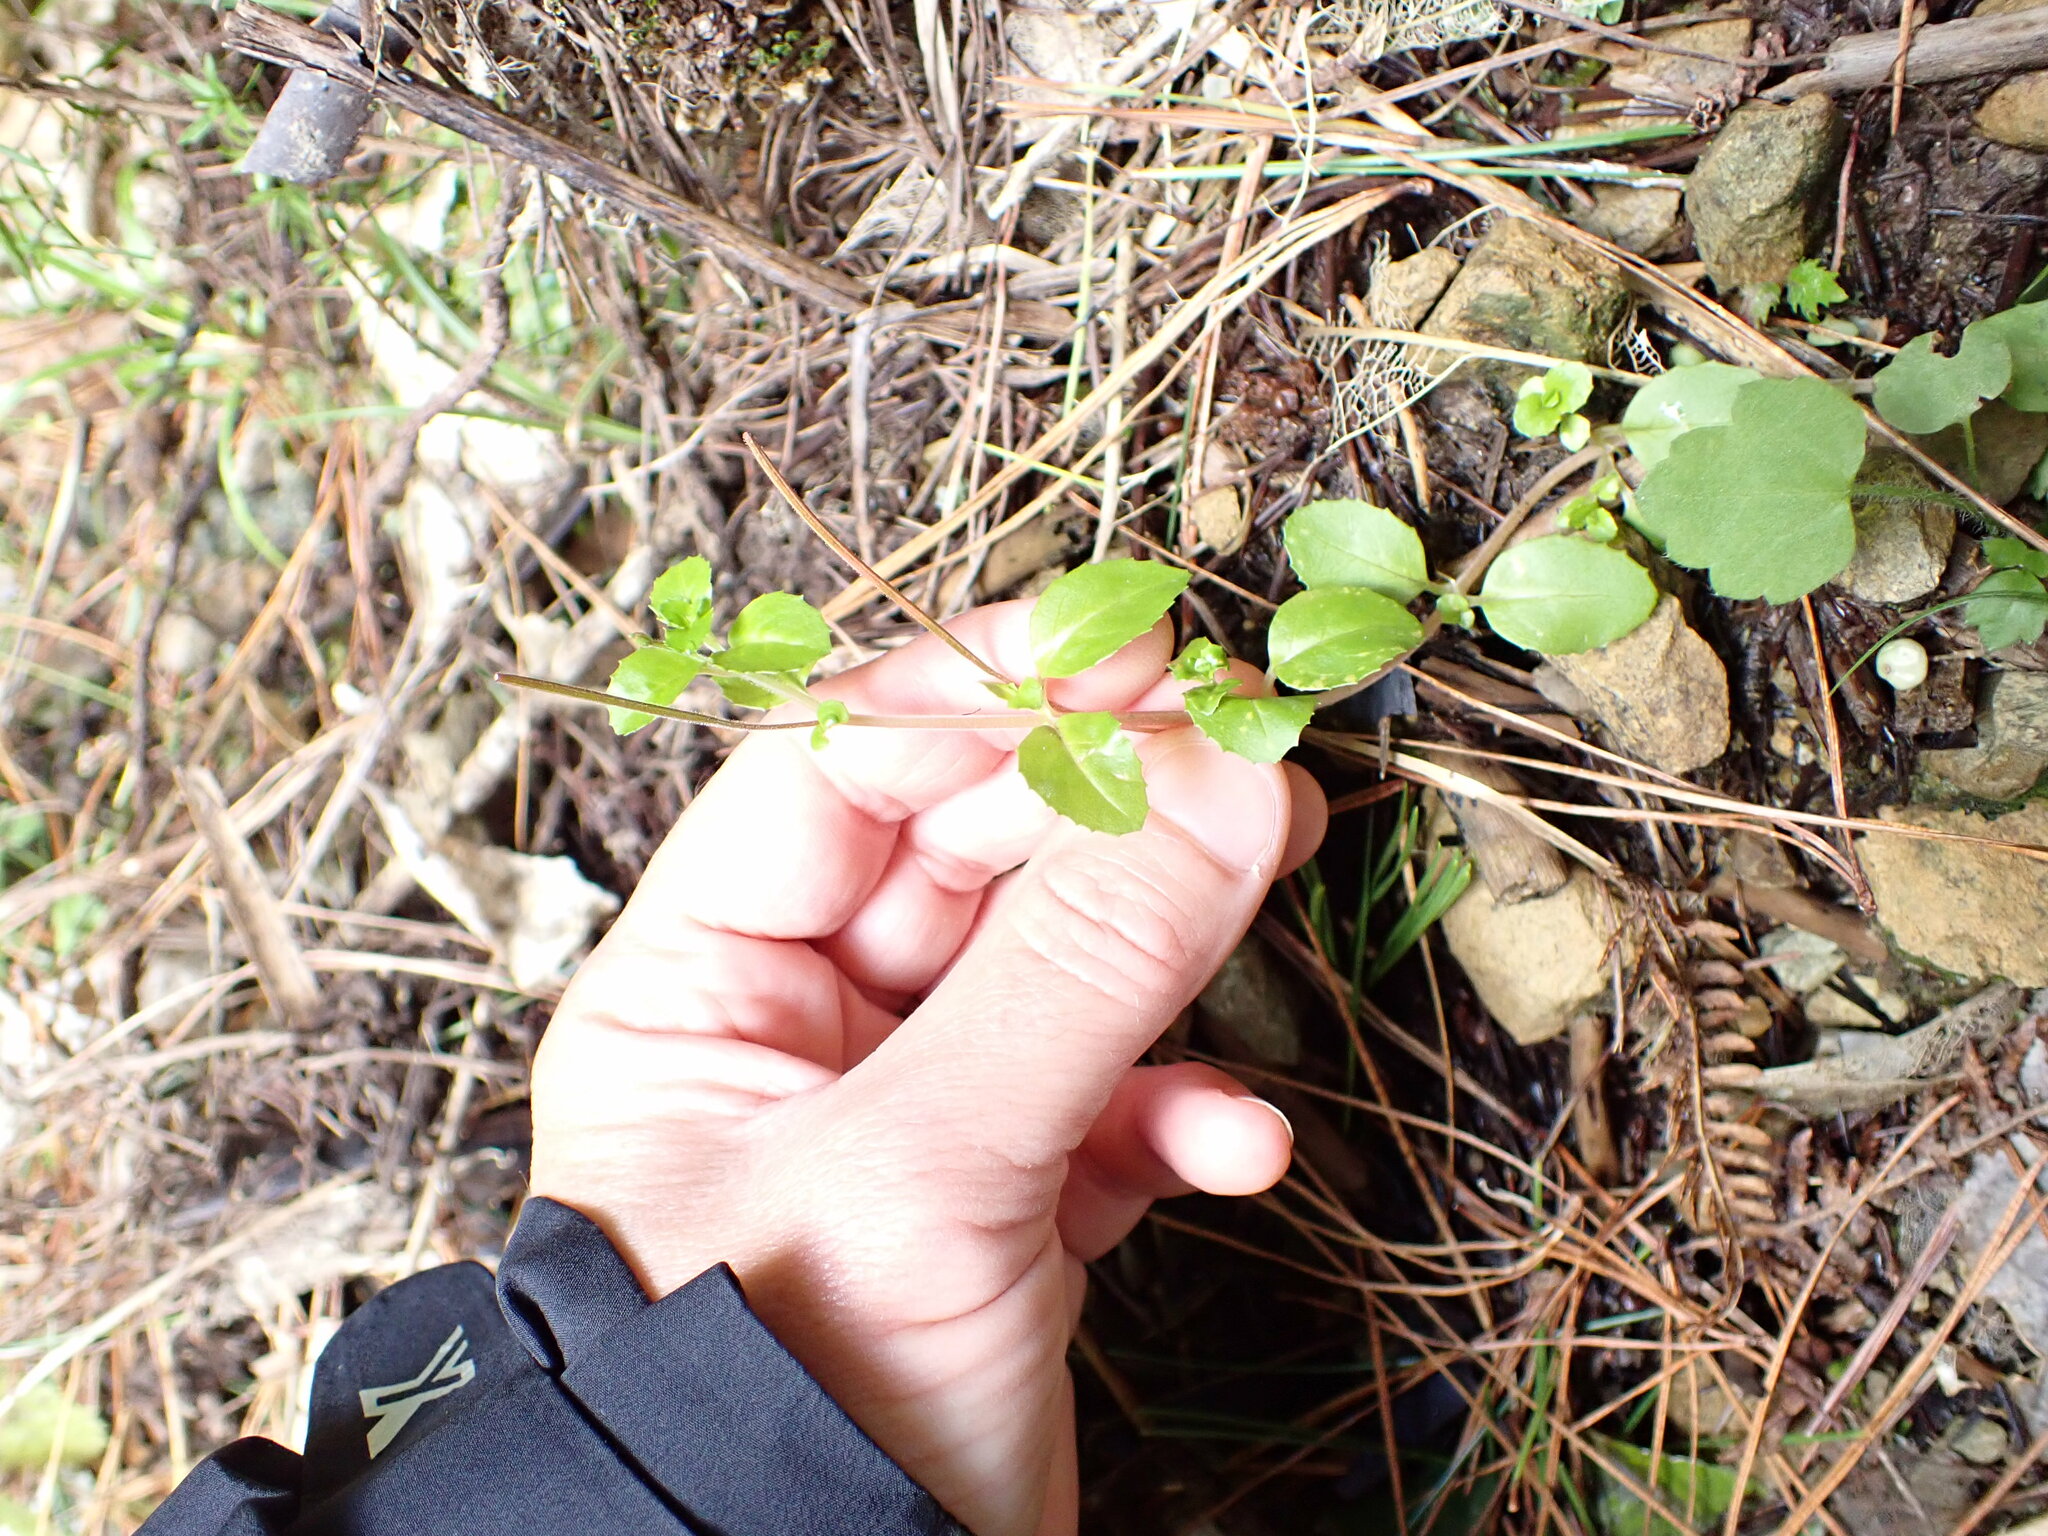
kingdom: Plantae
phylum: Tracheophyta
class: Magnoliopsida
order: Myrtales
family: Onagraceae
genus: Epilobium
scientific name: Epilobium rotundifolium
